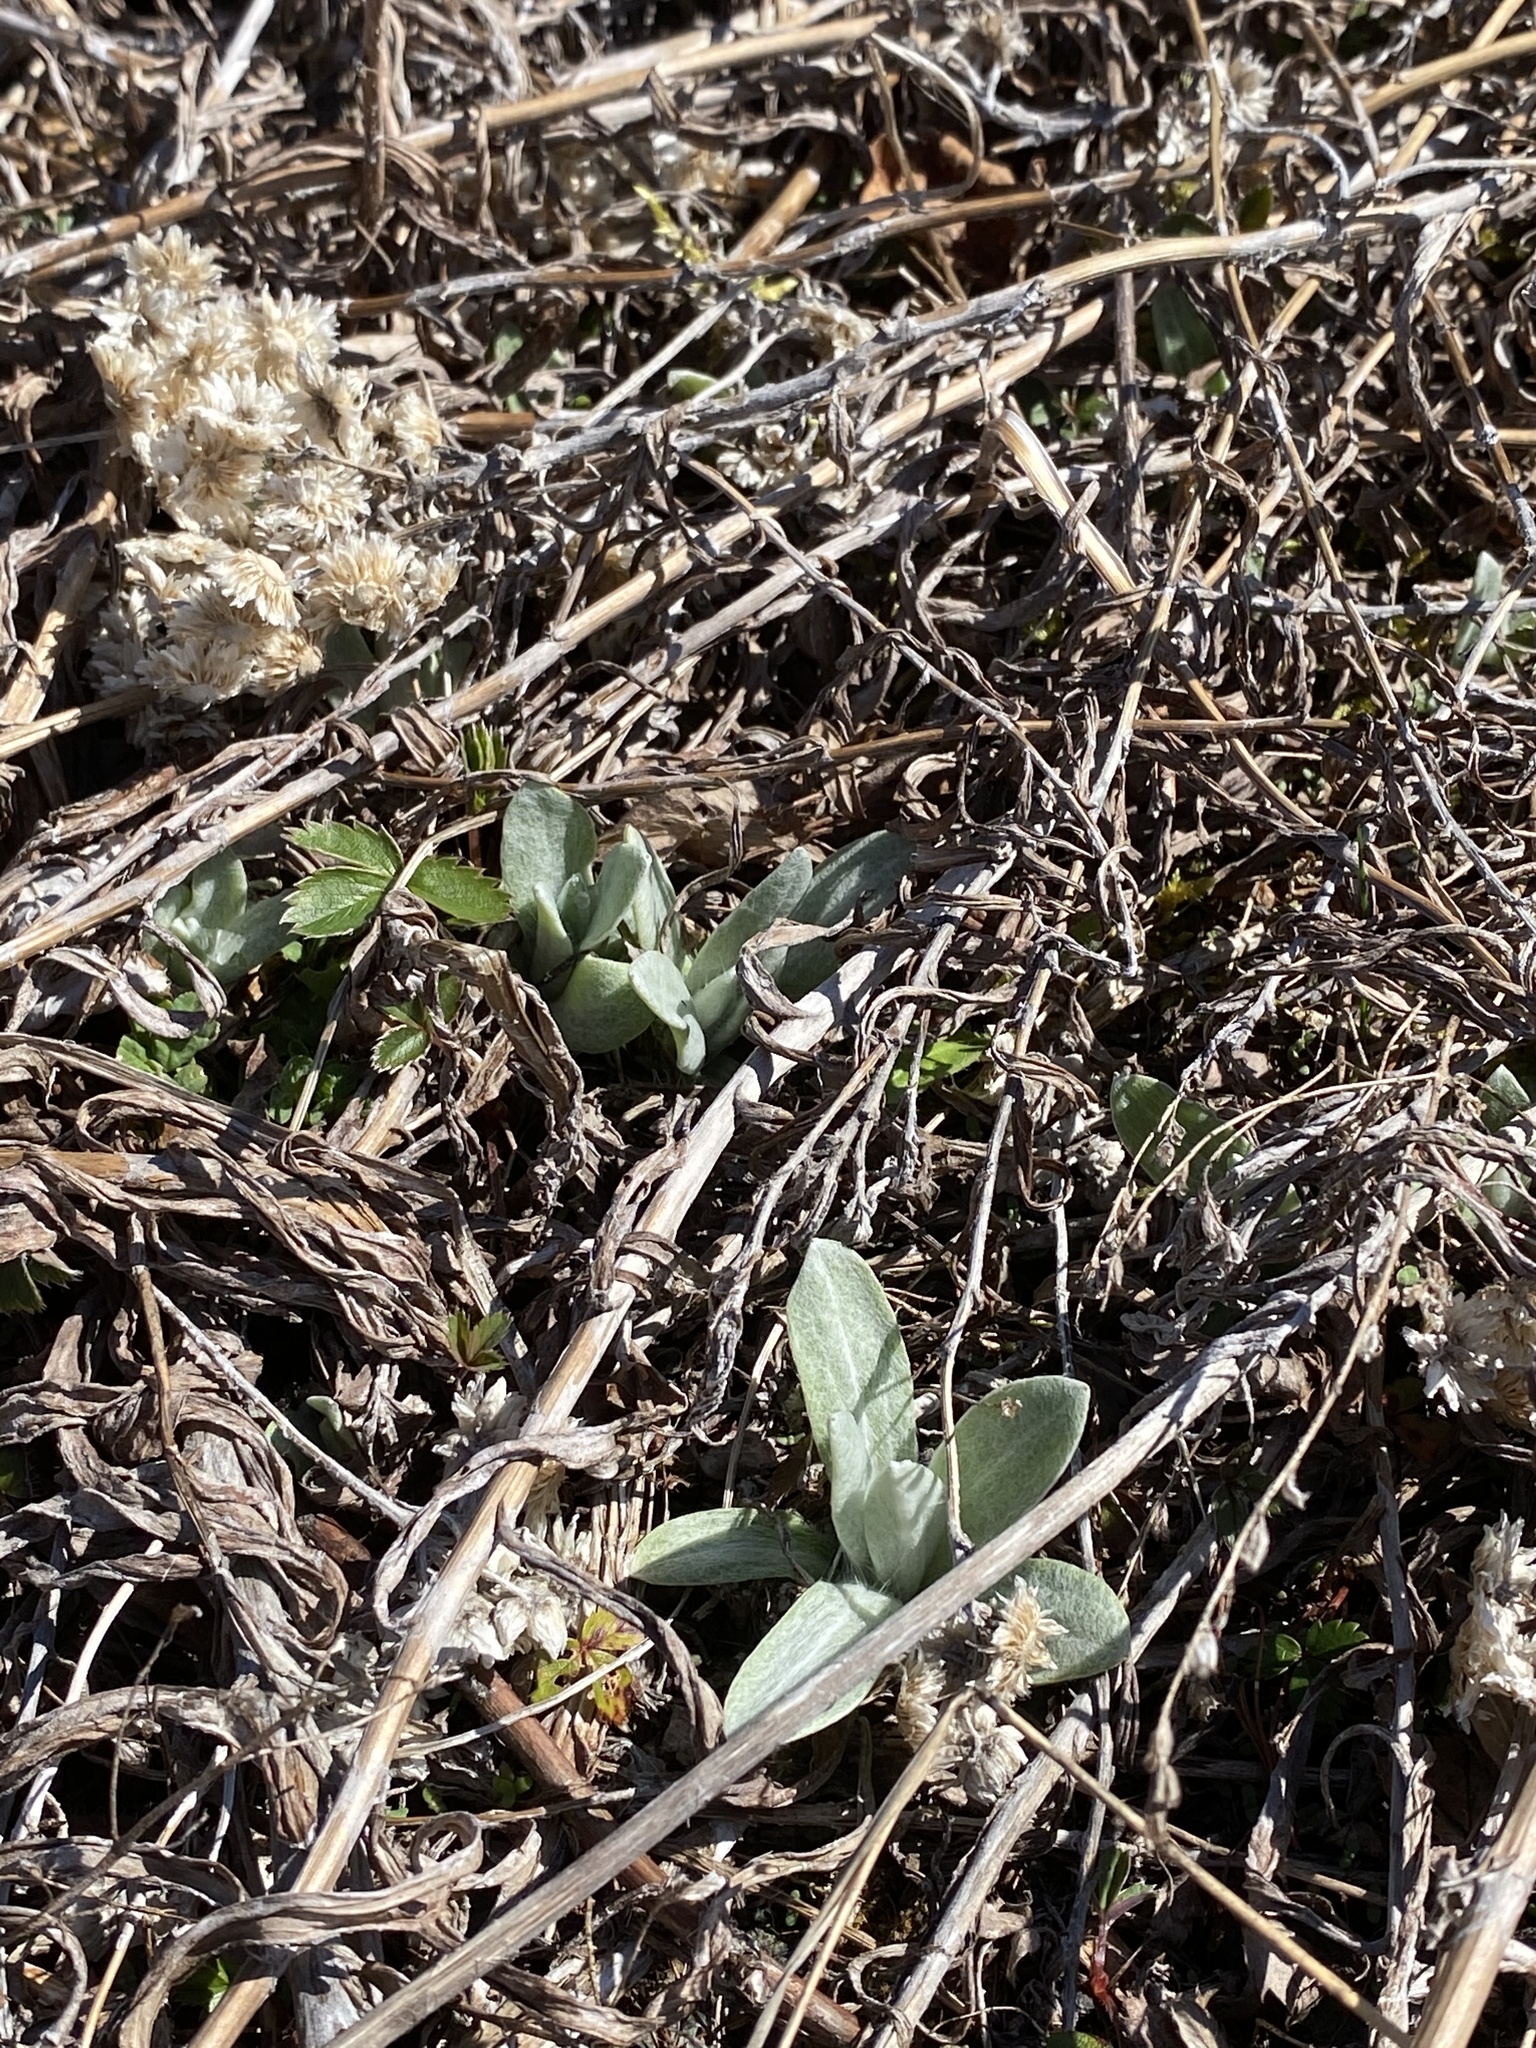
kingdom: Plantae
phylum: Tracheophyta
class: Magnoliopsida
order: Asterales
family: Asteraceae
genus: Anaphalis
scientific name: Anaphalis margaritacea
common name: Pearly everlasting
